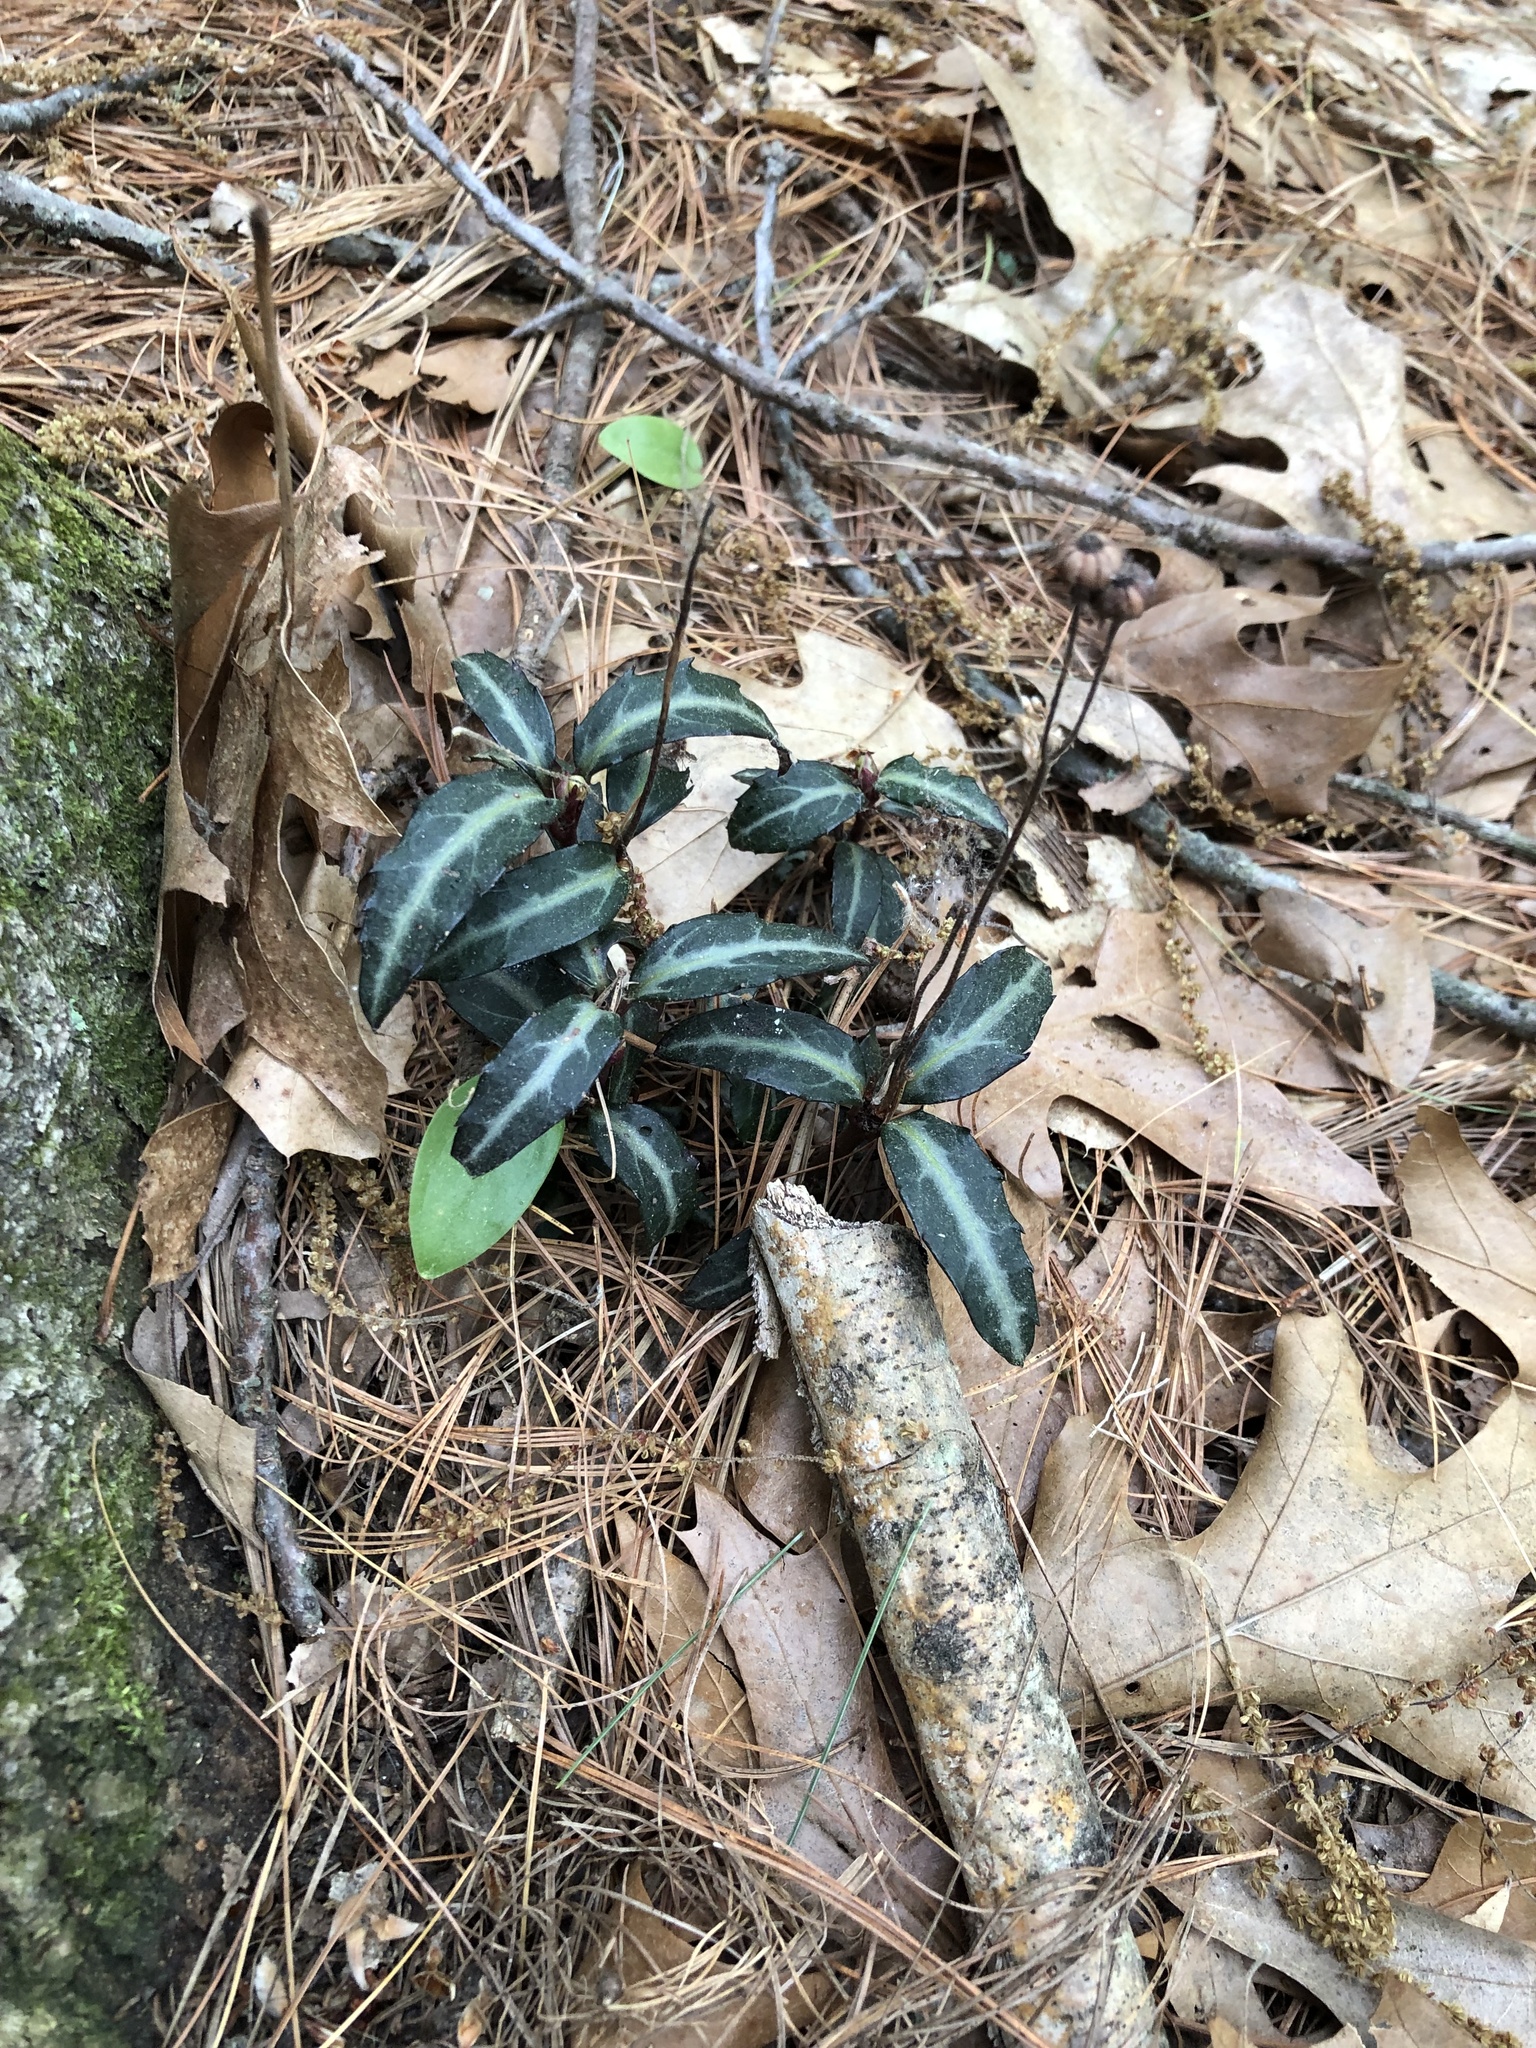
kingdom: Plantae
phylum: Tracheophyta
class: Magnoliopsida
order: Ericales
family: Ericaceae
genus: Chimaphila
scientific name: Chimaphila maculata
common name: Spotted pipsissewa
